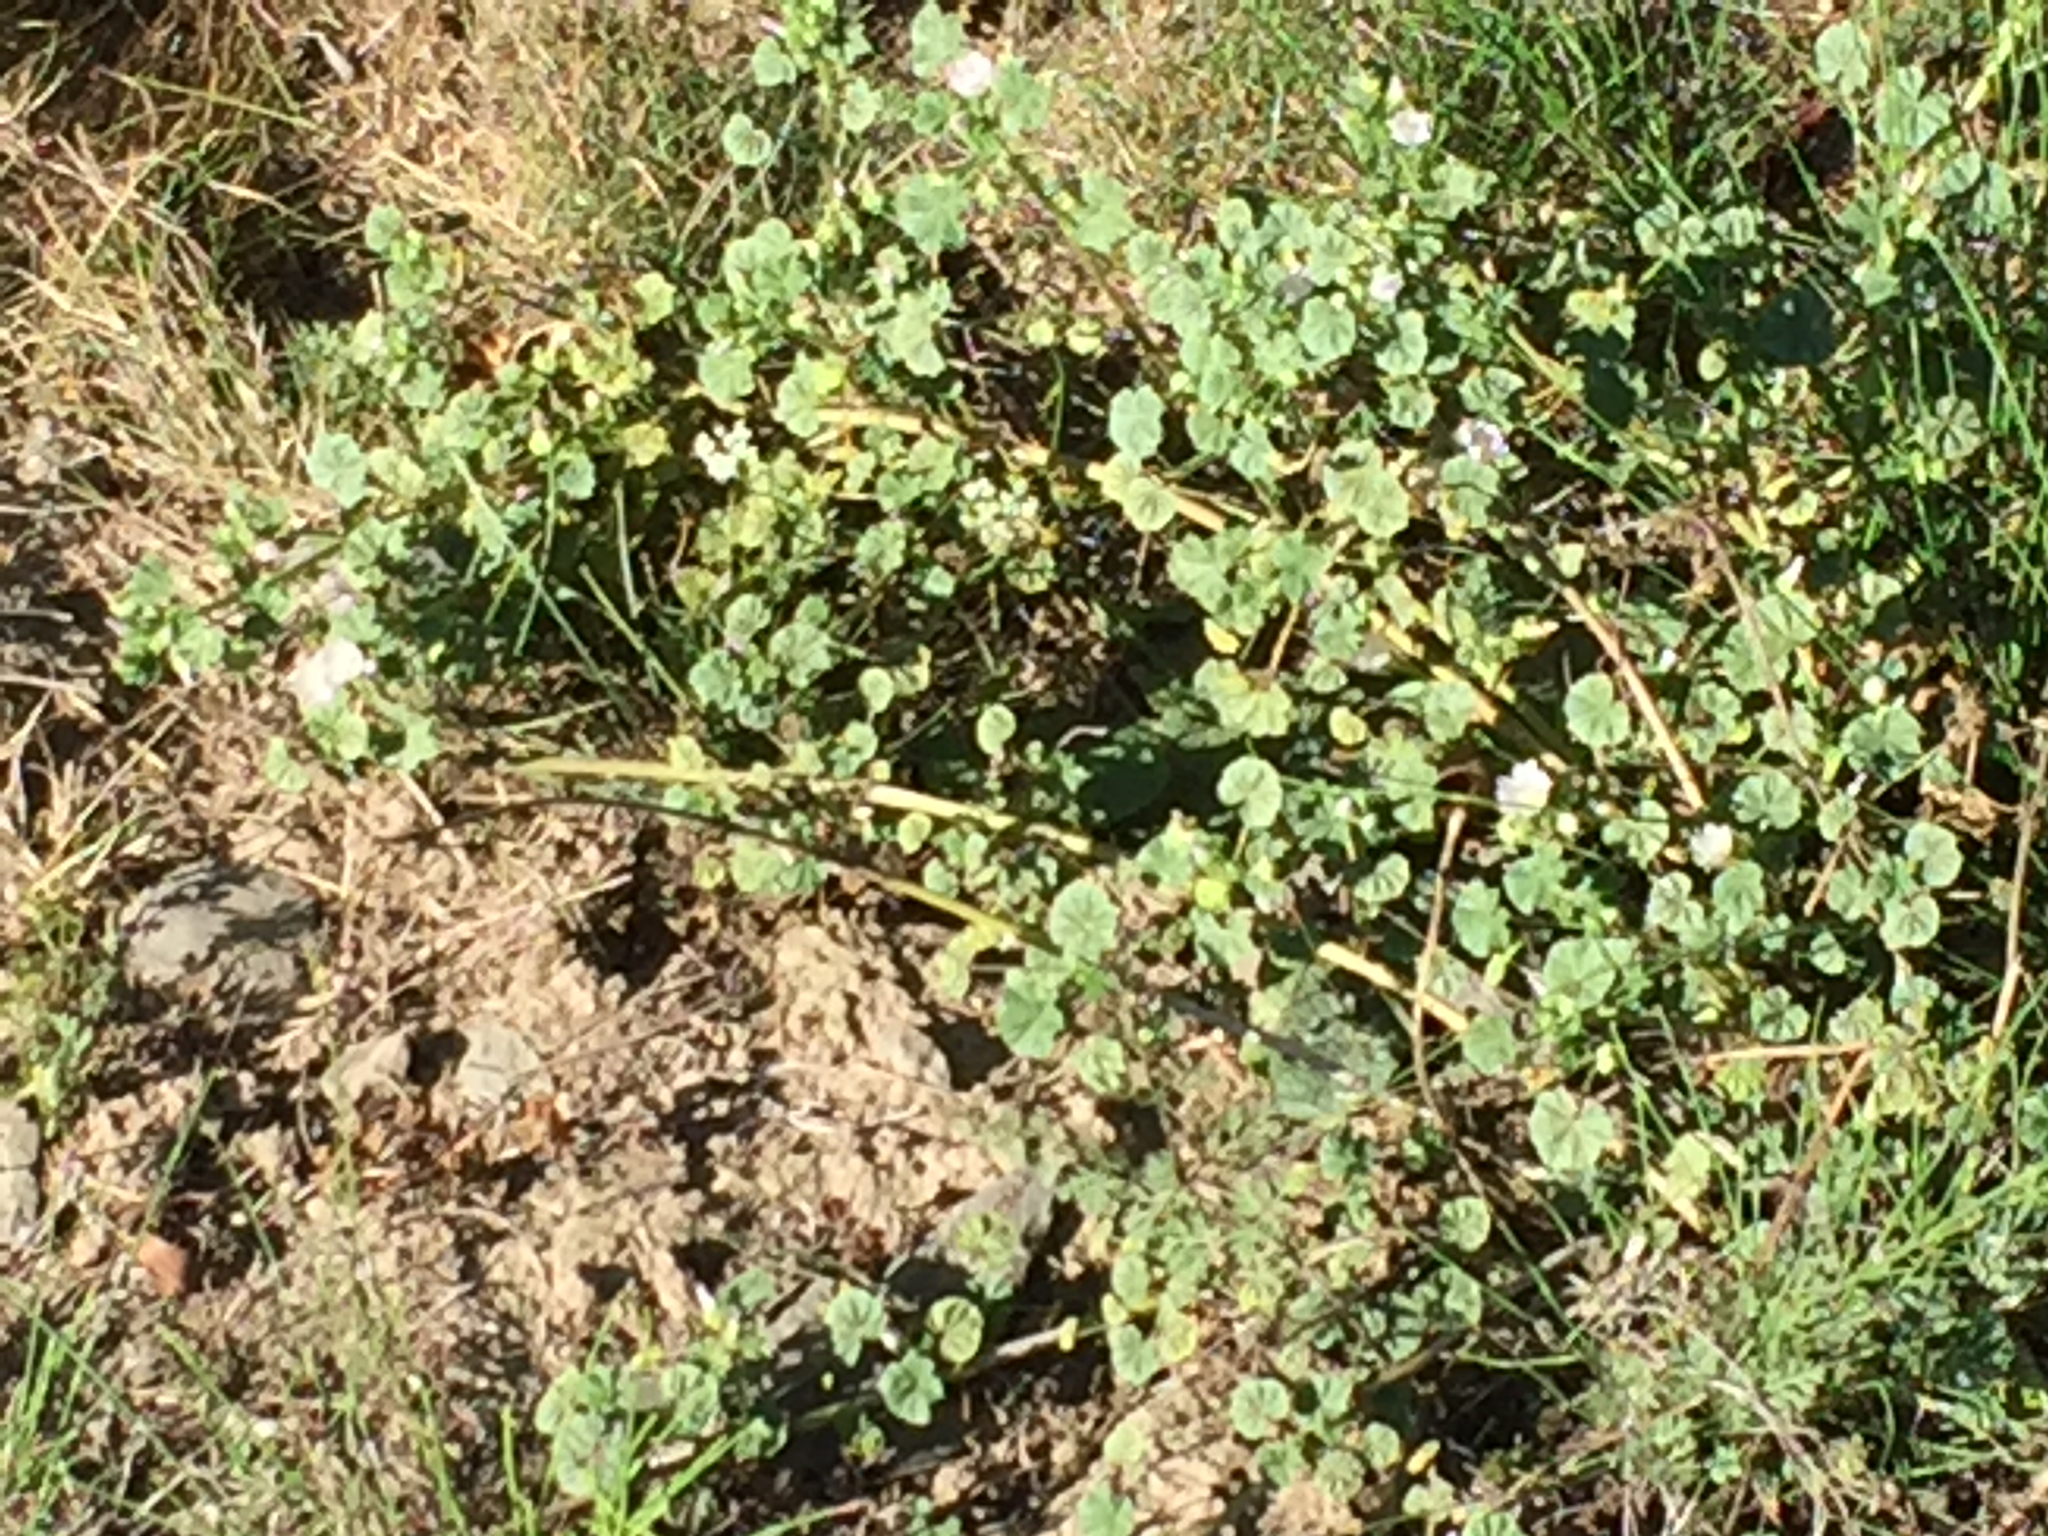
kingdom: Plantae
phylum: Tracheophyta
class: Magnoliopsida
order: Malvales
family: Malvaceae
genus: Malva
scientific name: Malva neglecta
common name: Common mallow
